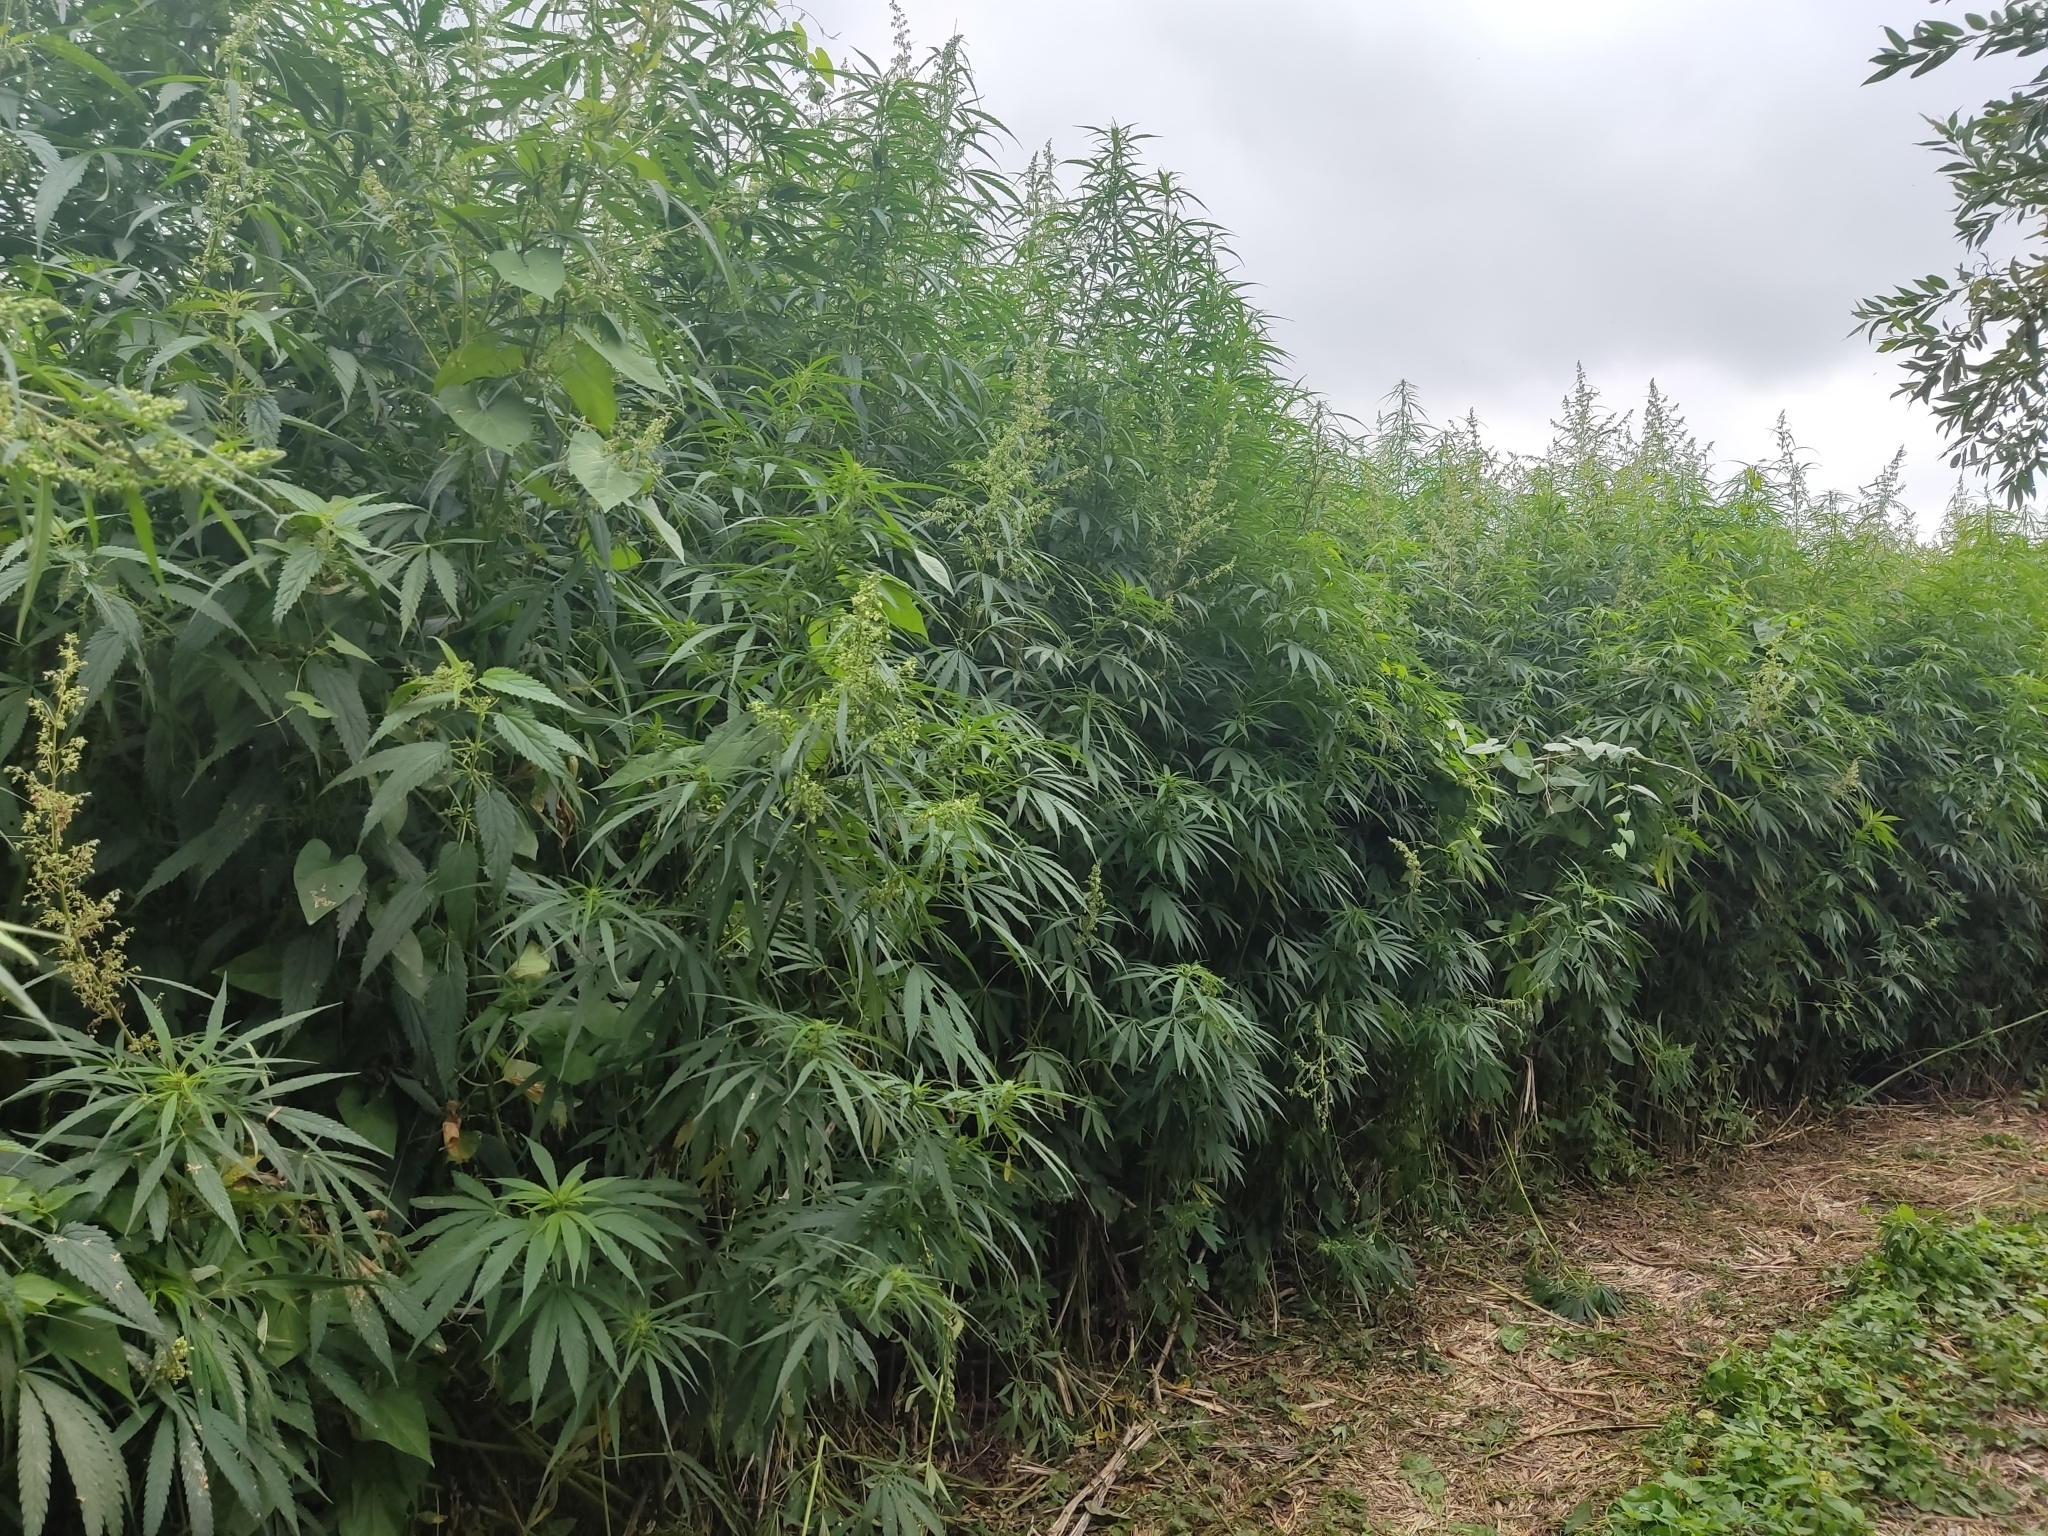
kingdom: Plantae
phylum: Tracheophyta
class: Magnoliopsida
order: Rosales
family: Cannabaceae
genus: Cannabis
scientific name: Cannabis sativa
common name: Hemp
